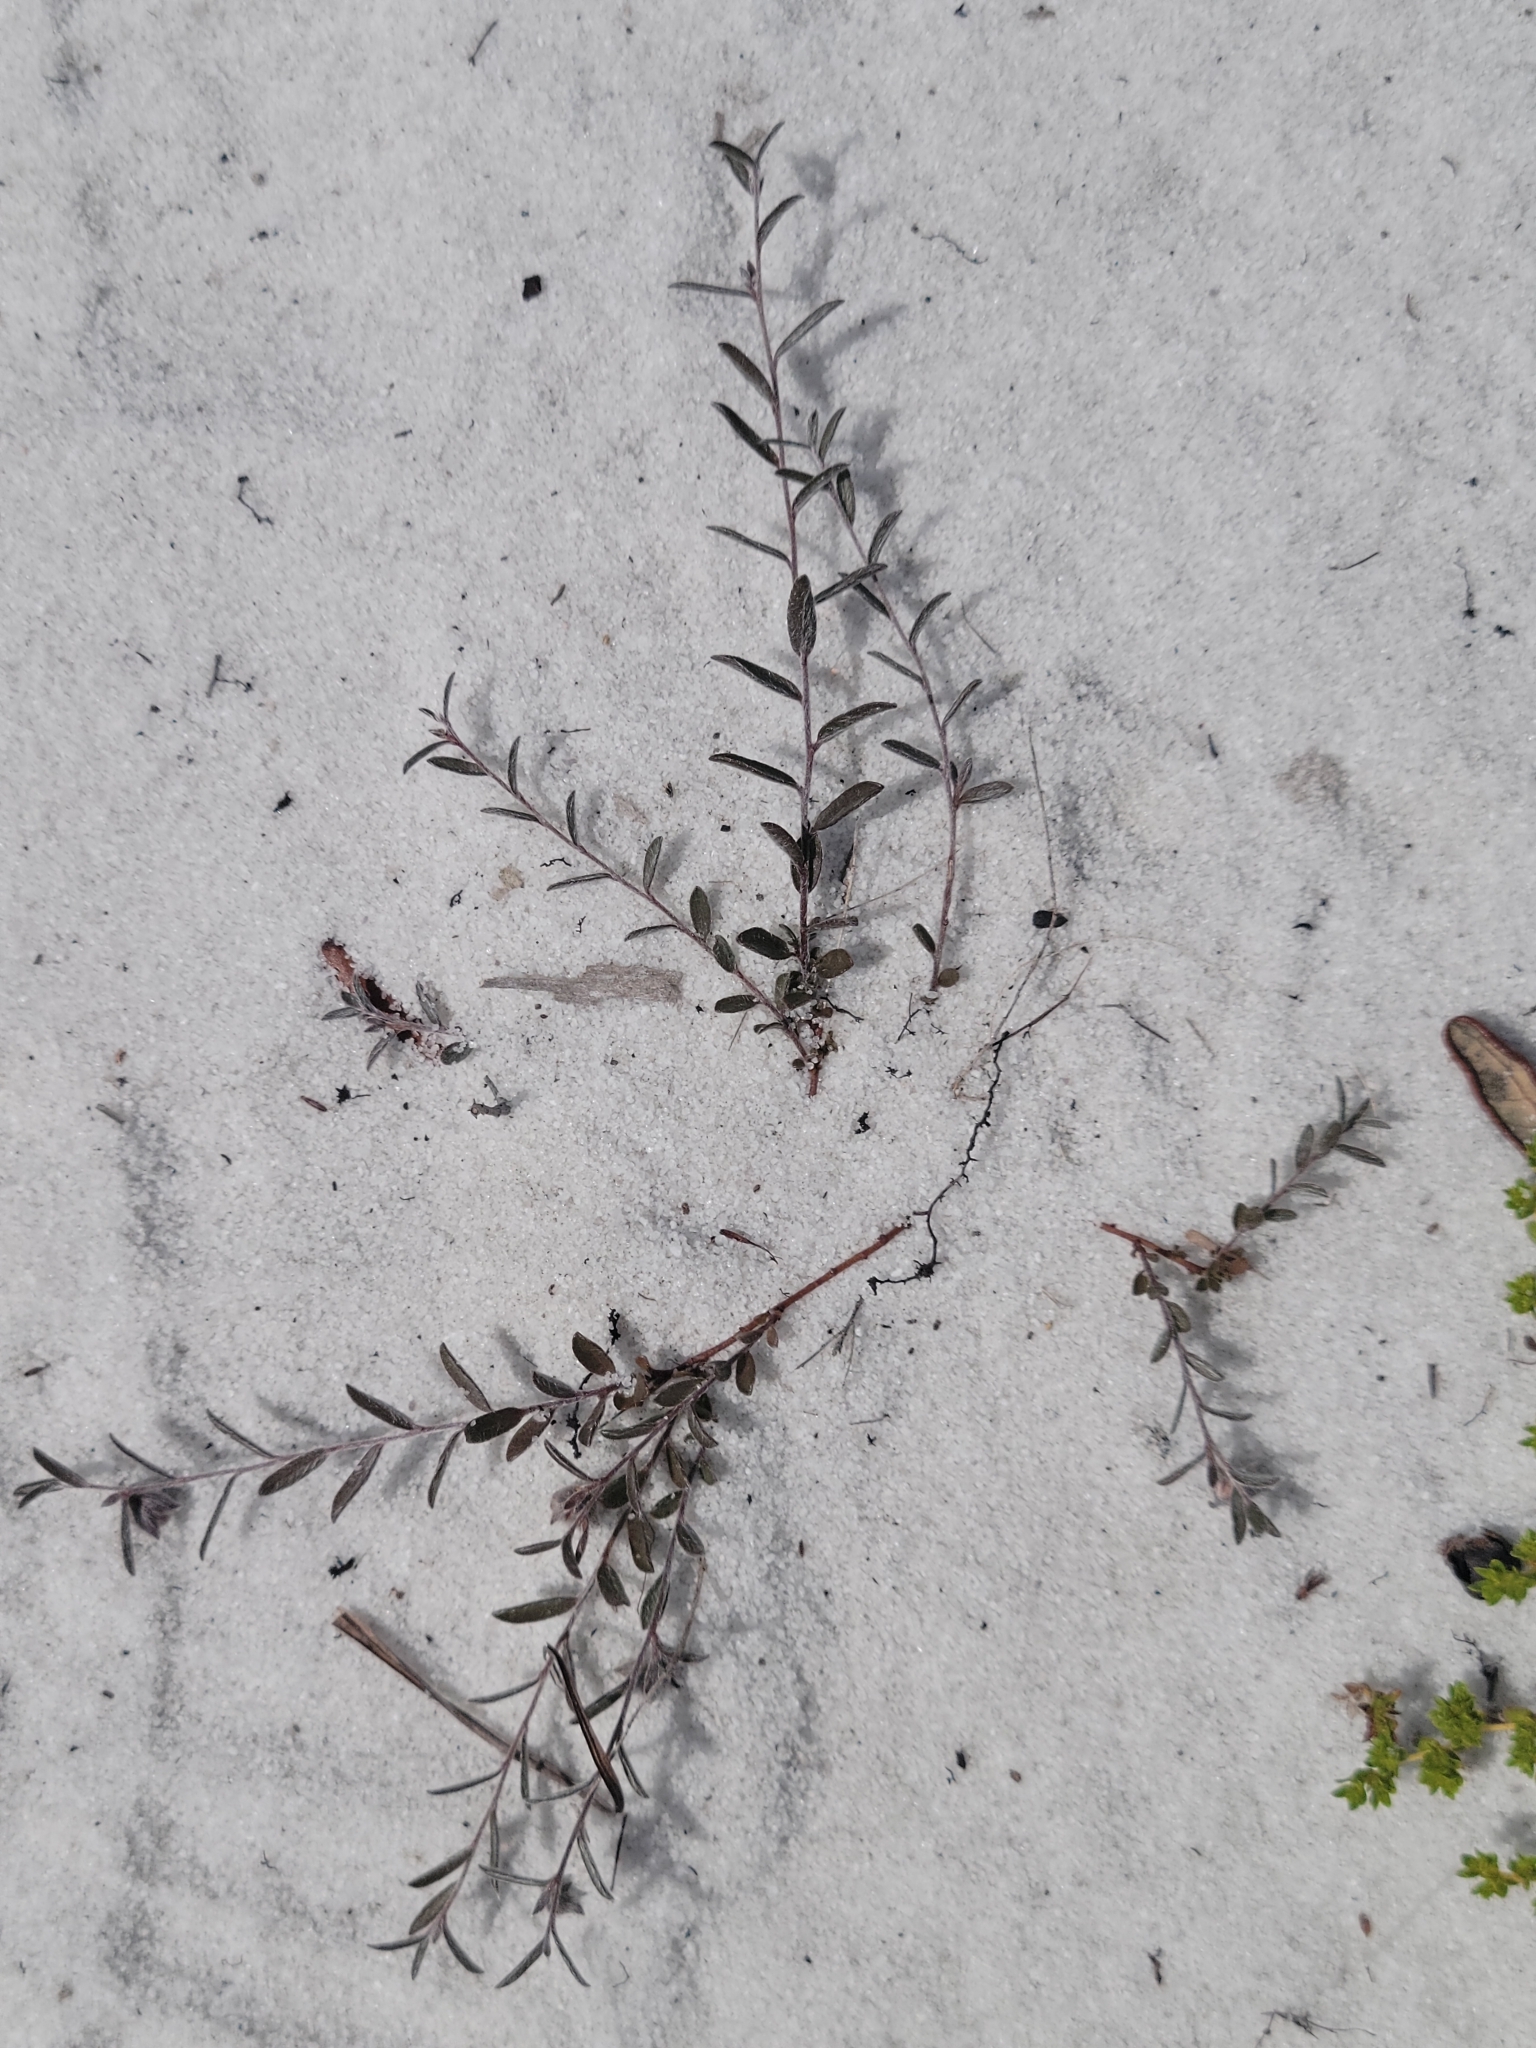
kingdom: Plantae
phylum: Tracheophyta
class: Magnoliopsida
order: Solanales
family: Convolvulaceae
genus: Stylisma
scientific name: Stylisma abdita
